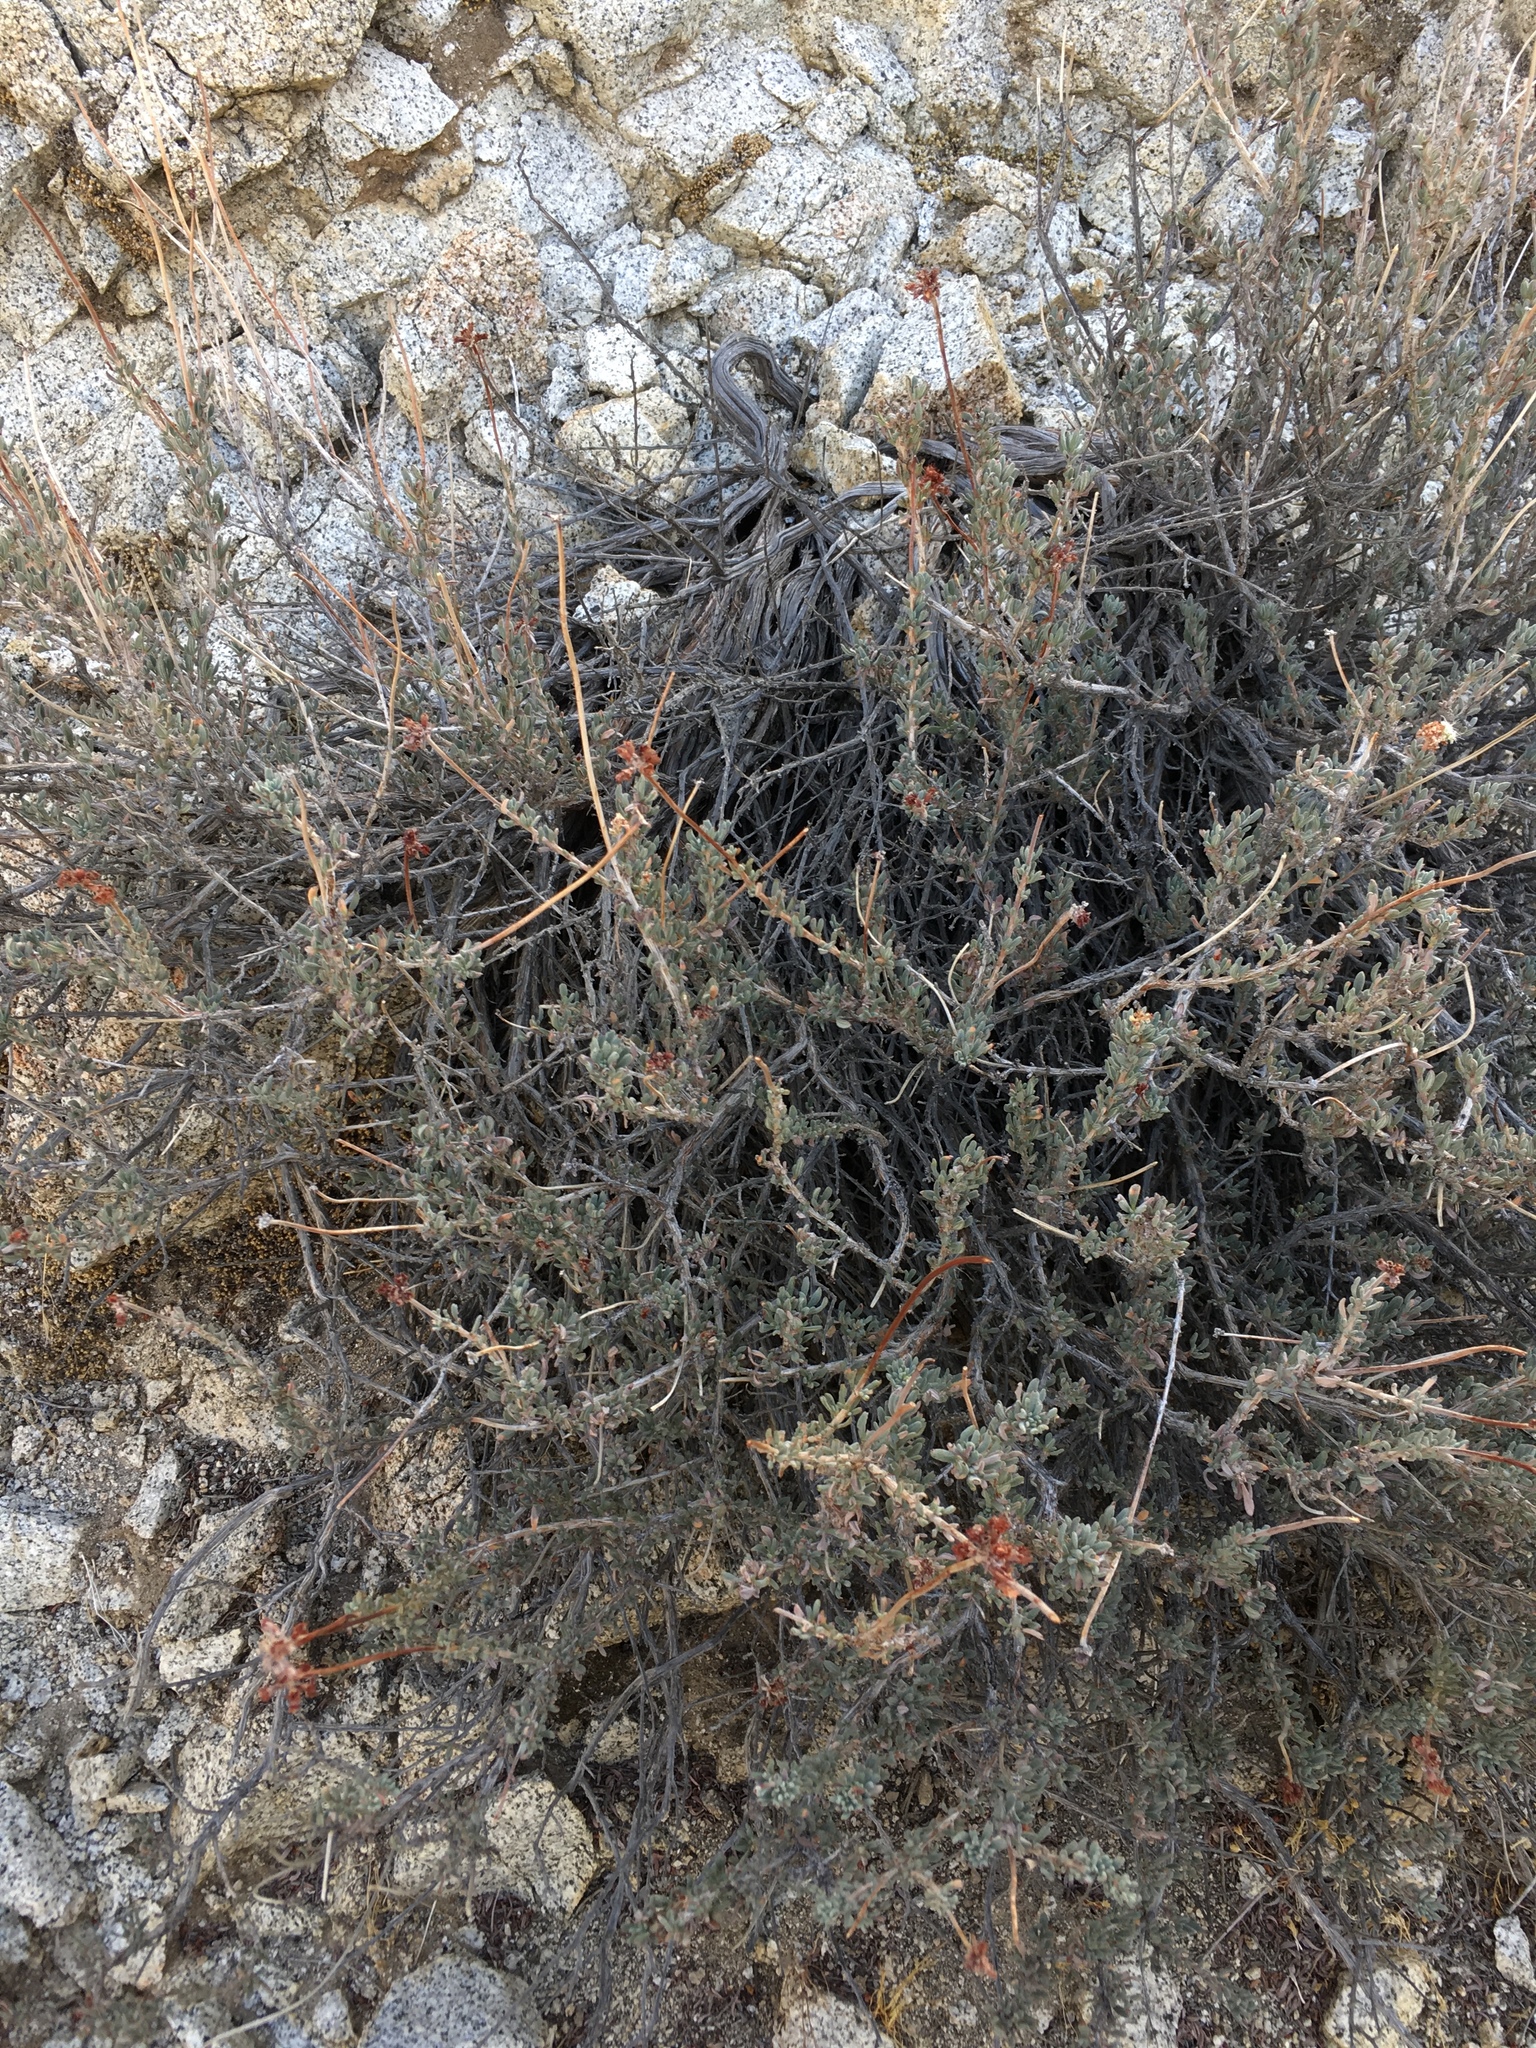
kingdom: Plantae
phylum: Tracheophyta
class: Magnoliopsida
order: Caryophyllales
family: Polygonaceae
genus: Eriogonum
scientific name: Eriogonum wrightii
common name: Bastard-sage
